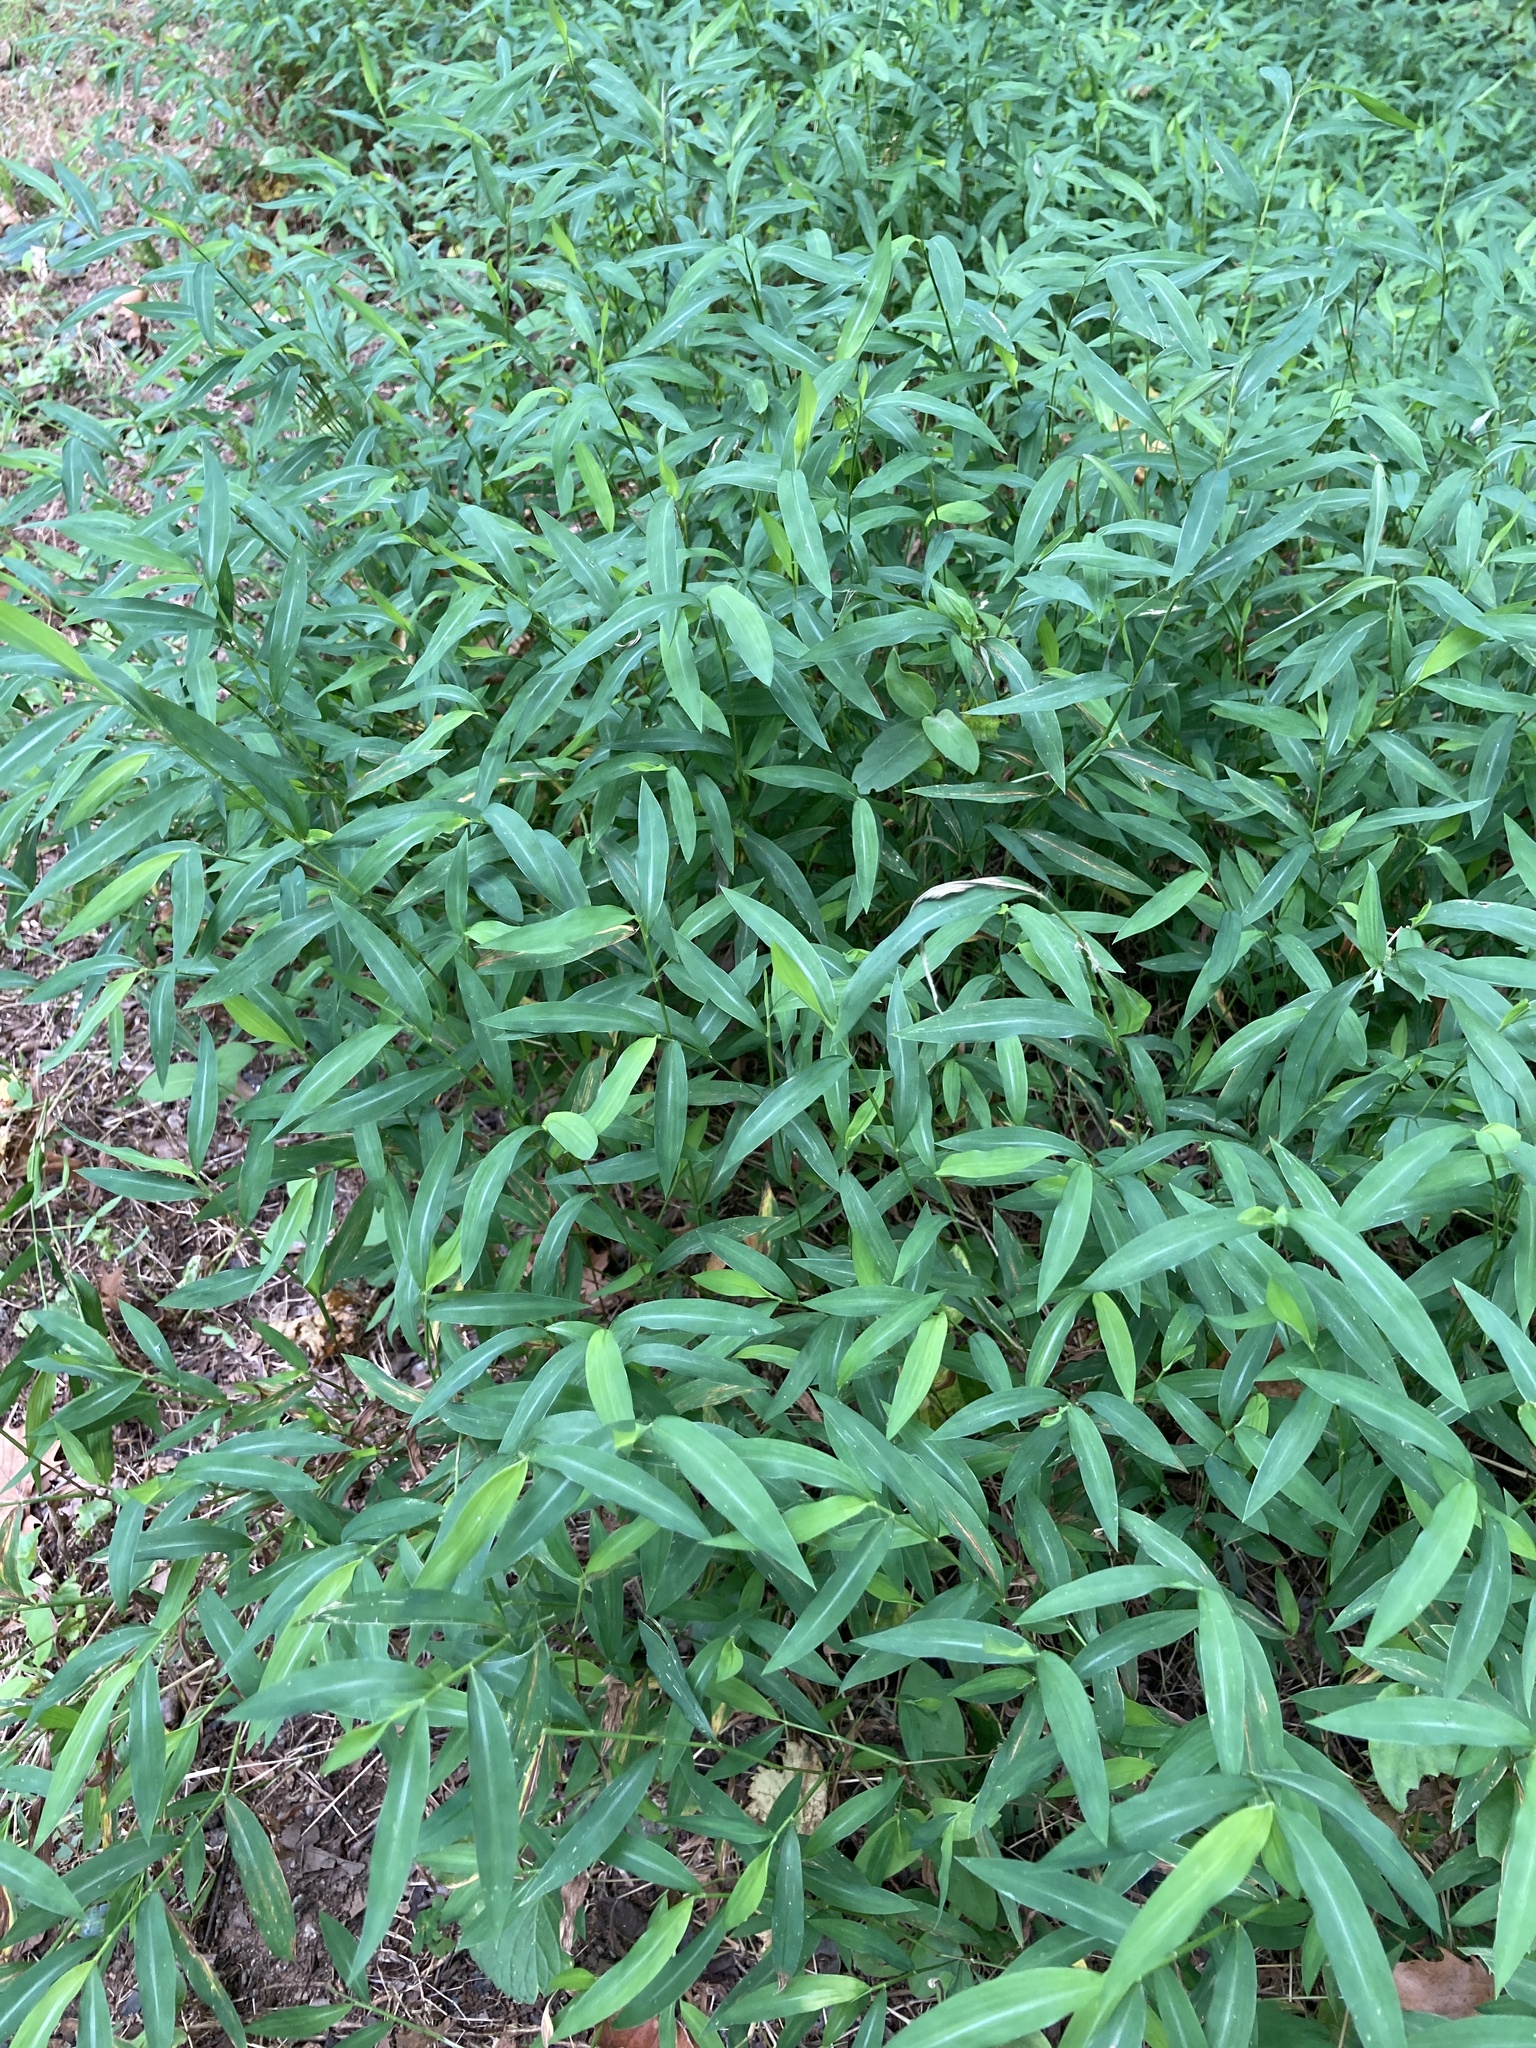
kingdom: Plantae
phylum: Tracheophyta
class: Liliopsida
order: Poales
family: Poaceae
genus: Microstegium
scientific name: Microstegium vimineum
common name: Japanese stiltgrass
